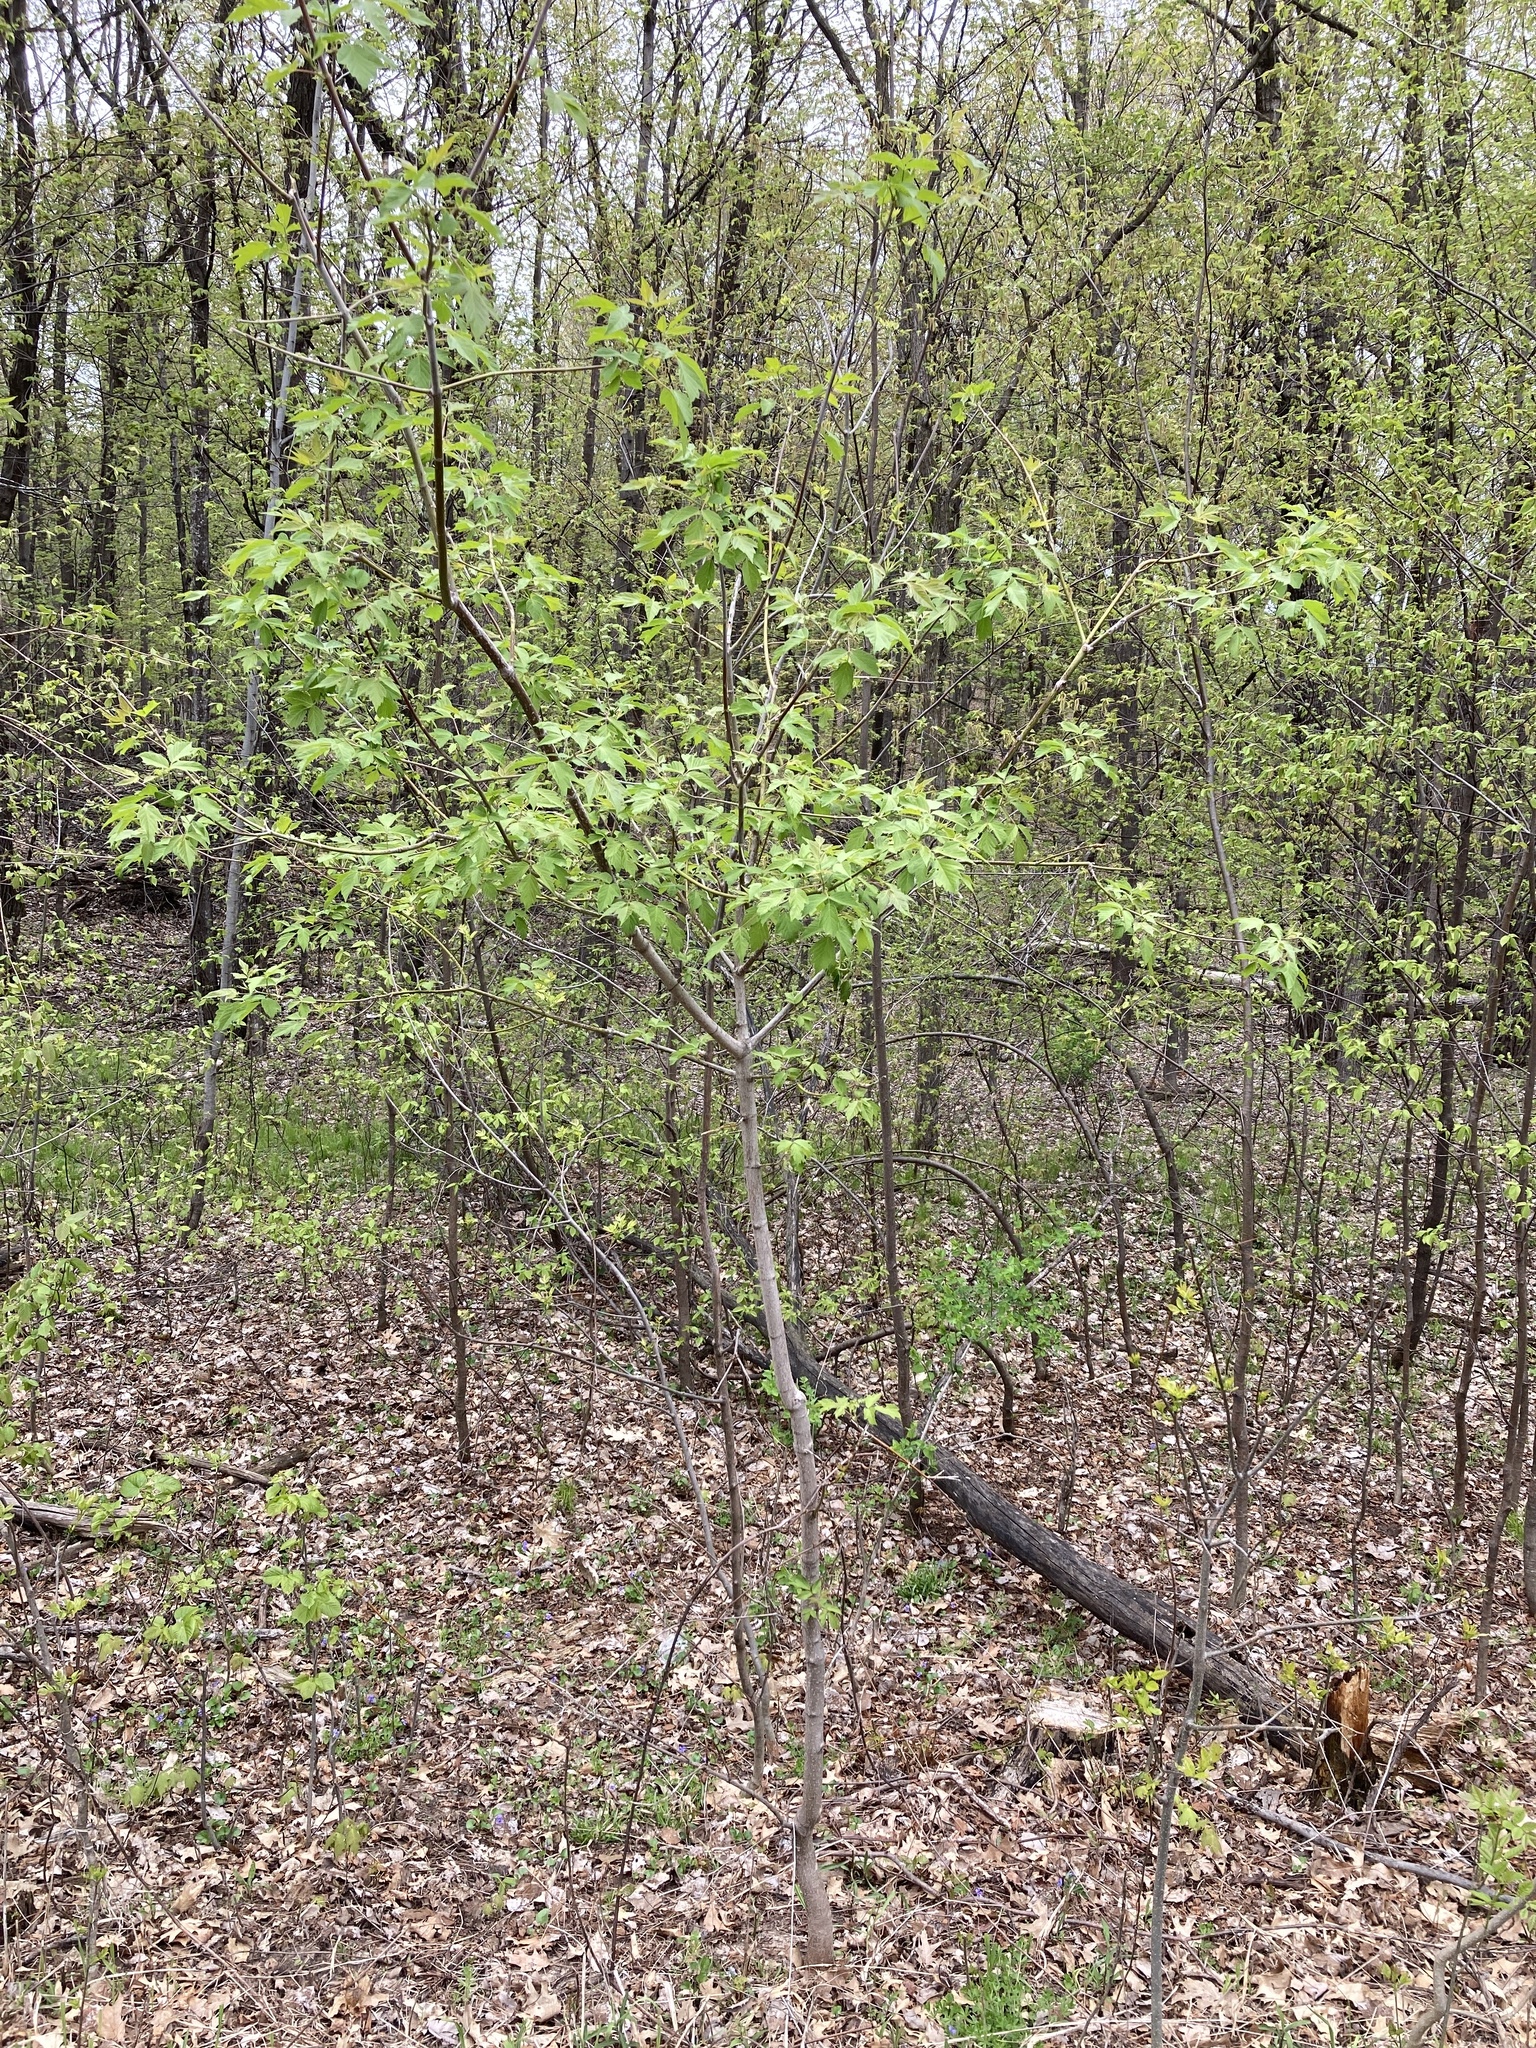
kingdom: Plantae
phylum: Tracheophyta
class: Magnoliopsida
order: Sapindales
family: Sapindaceae
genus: Acer
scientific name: Acer negundo
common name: Ashleaf maple
